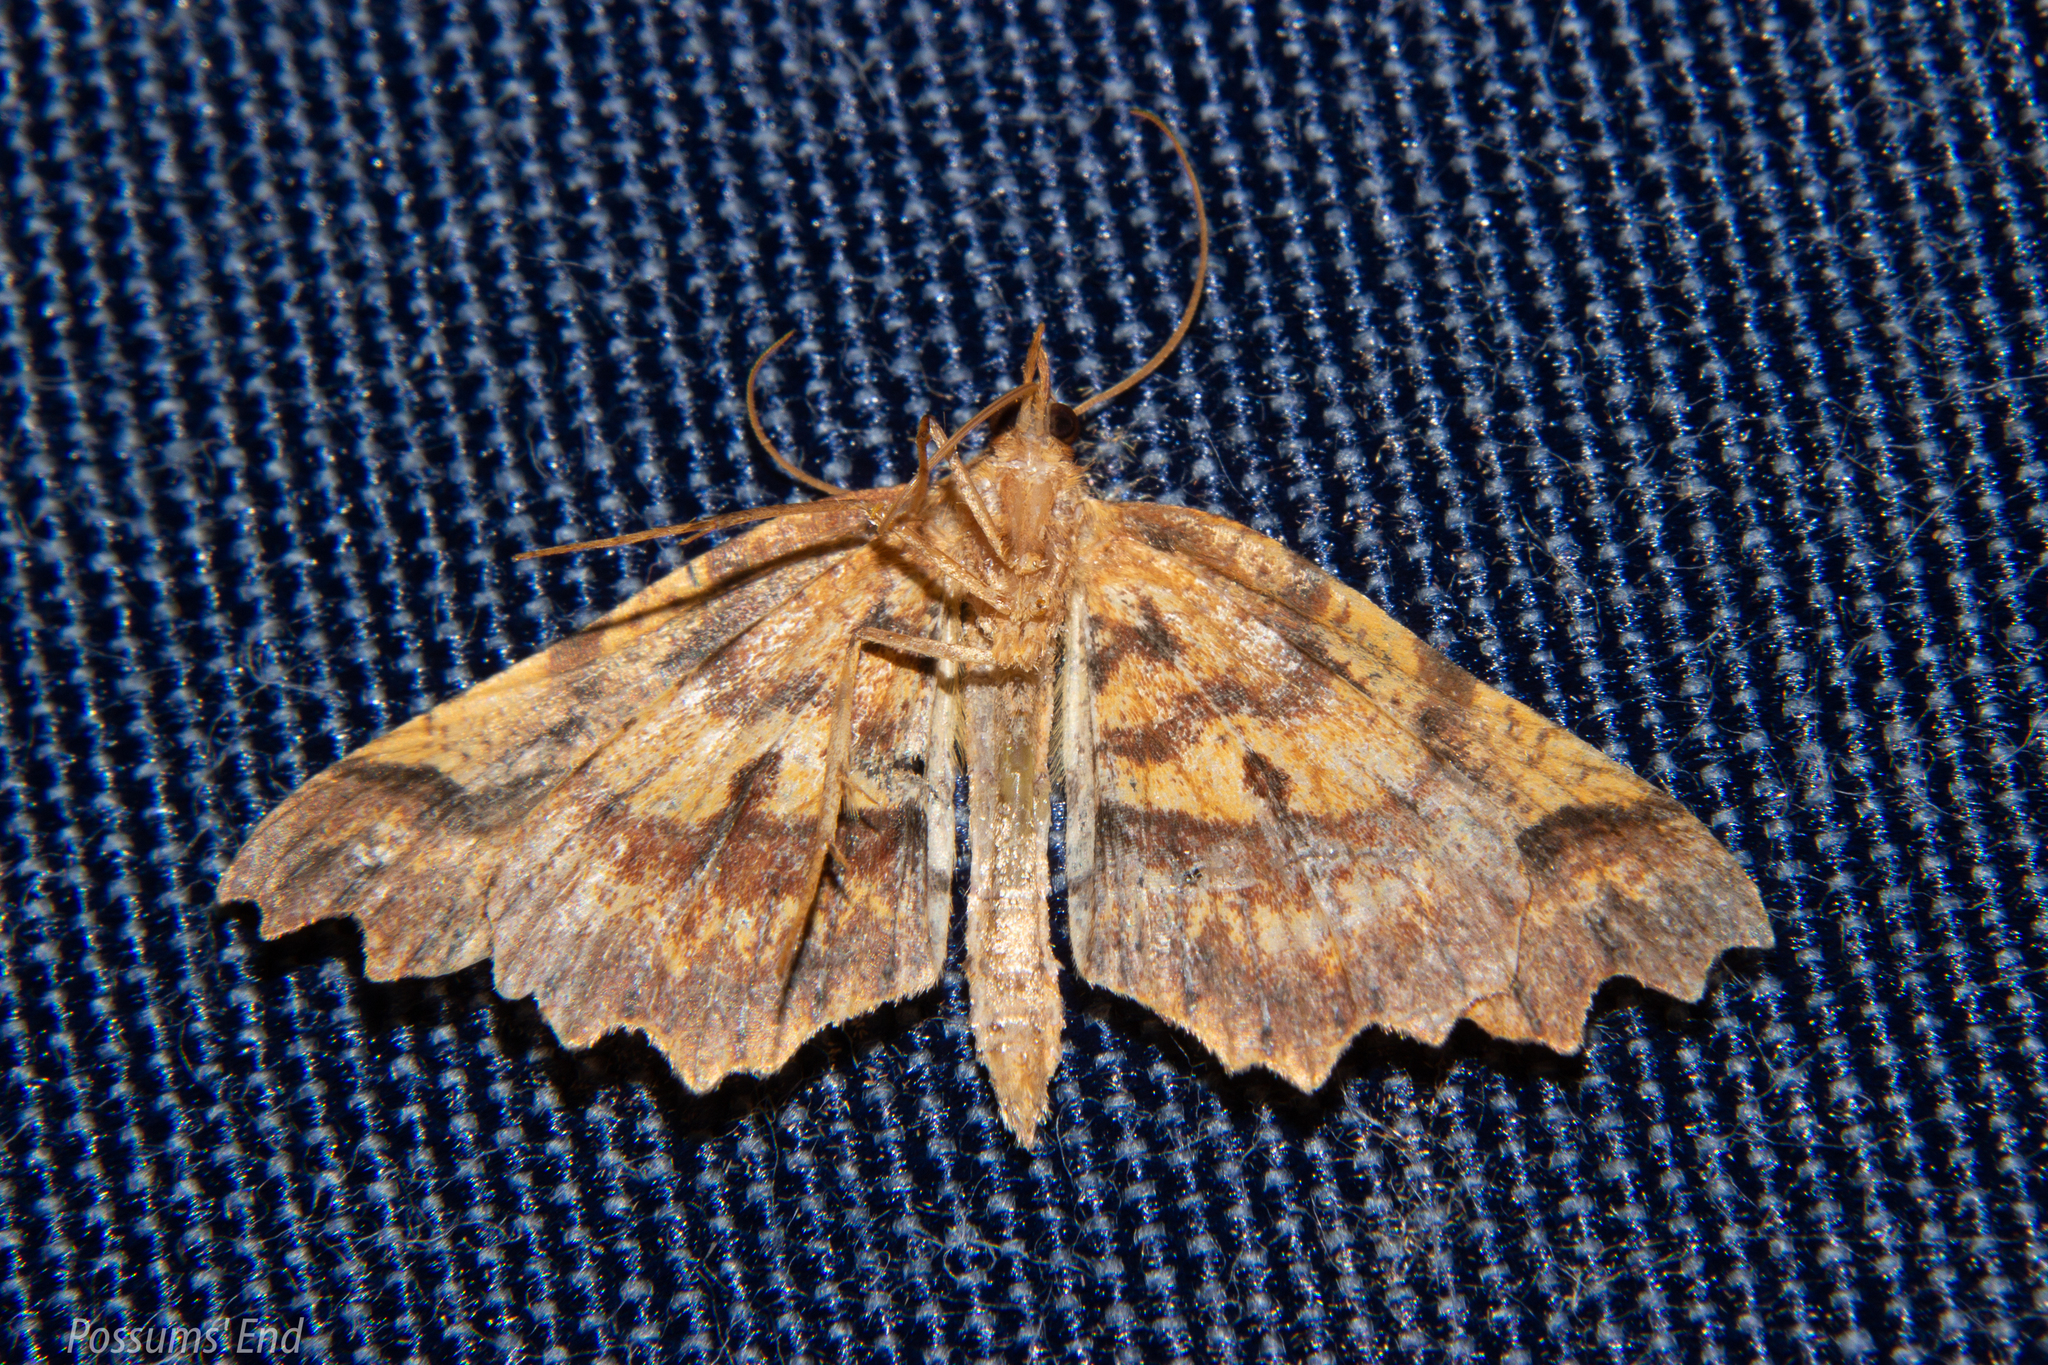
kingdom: Animalia
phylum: Arthropoda
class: Insecta
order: Lepidoptera
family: Geometridae
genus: Ischalis
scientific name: Ischalis fortinata
